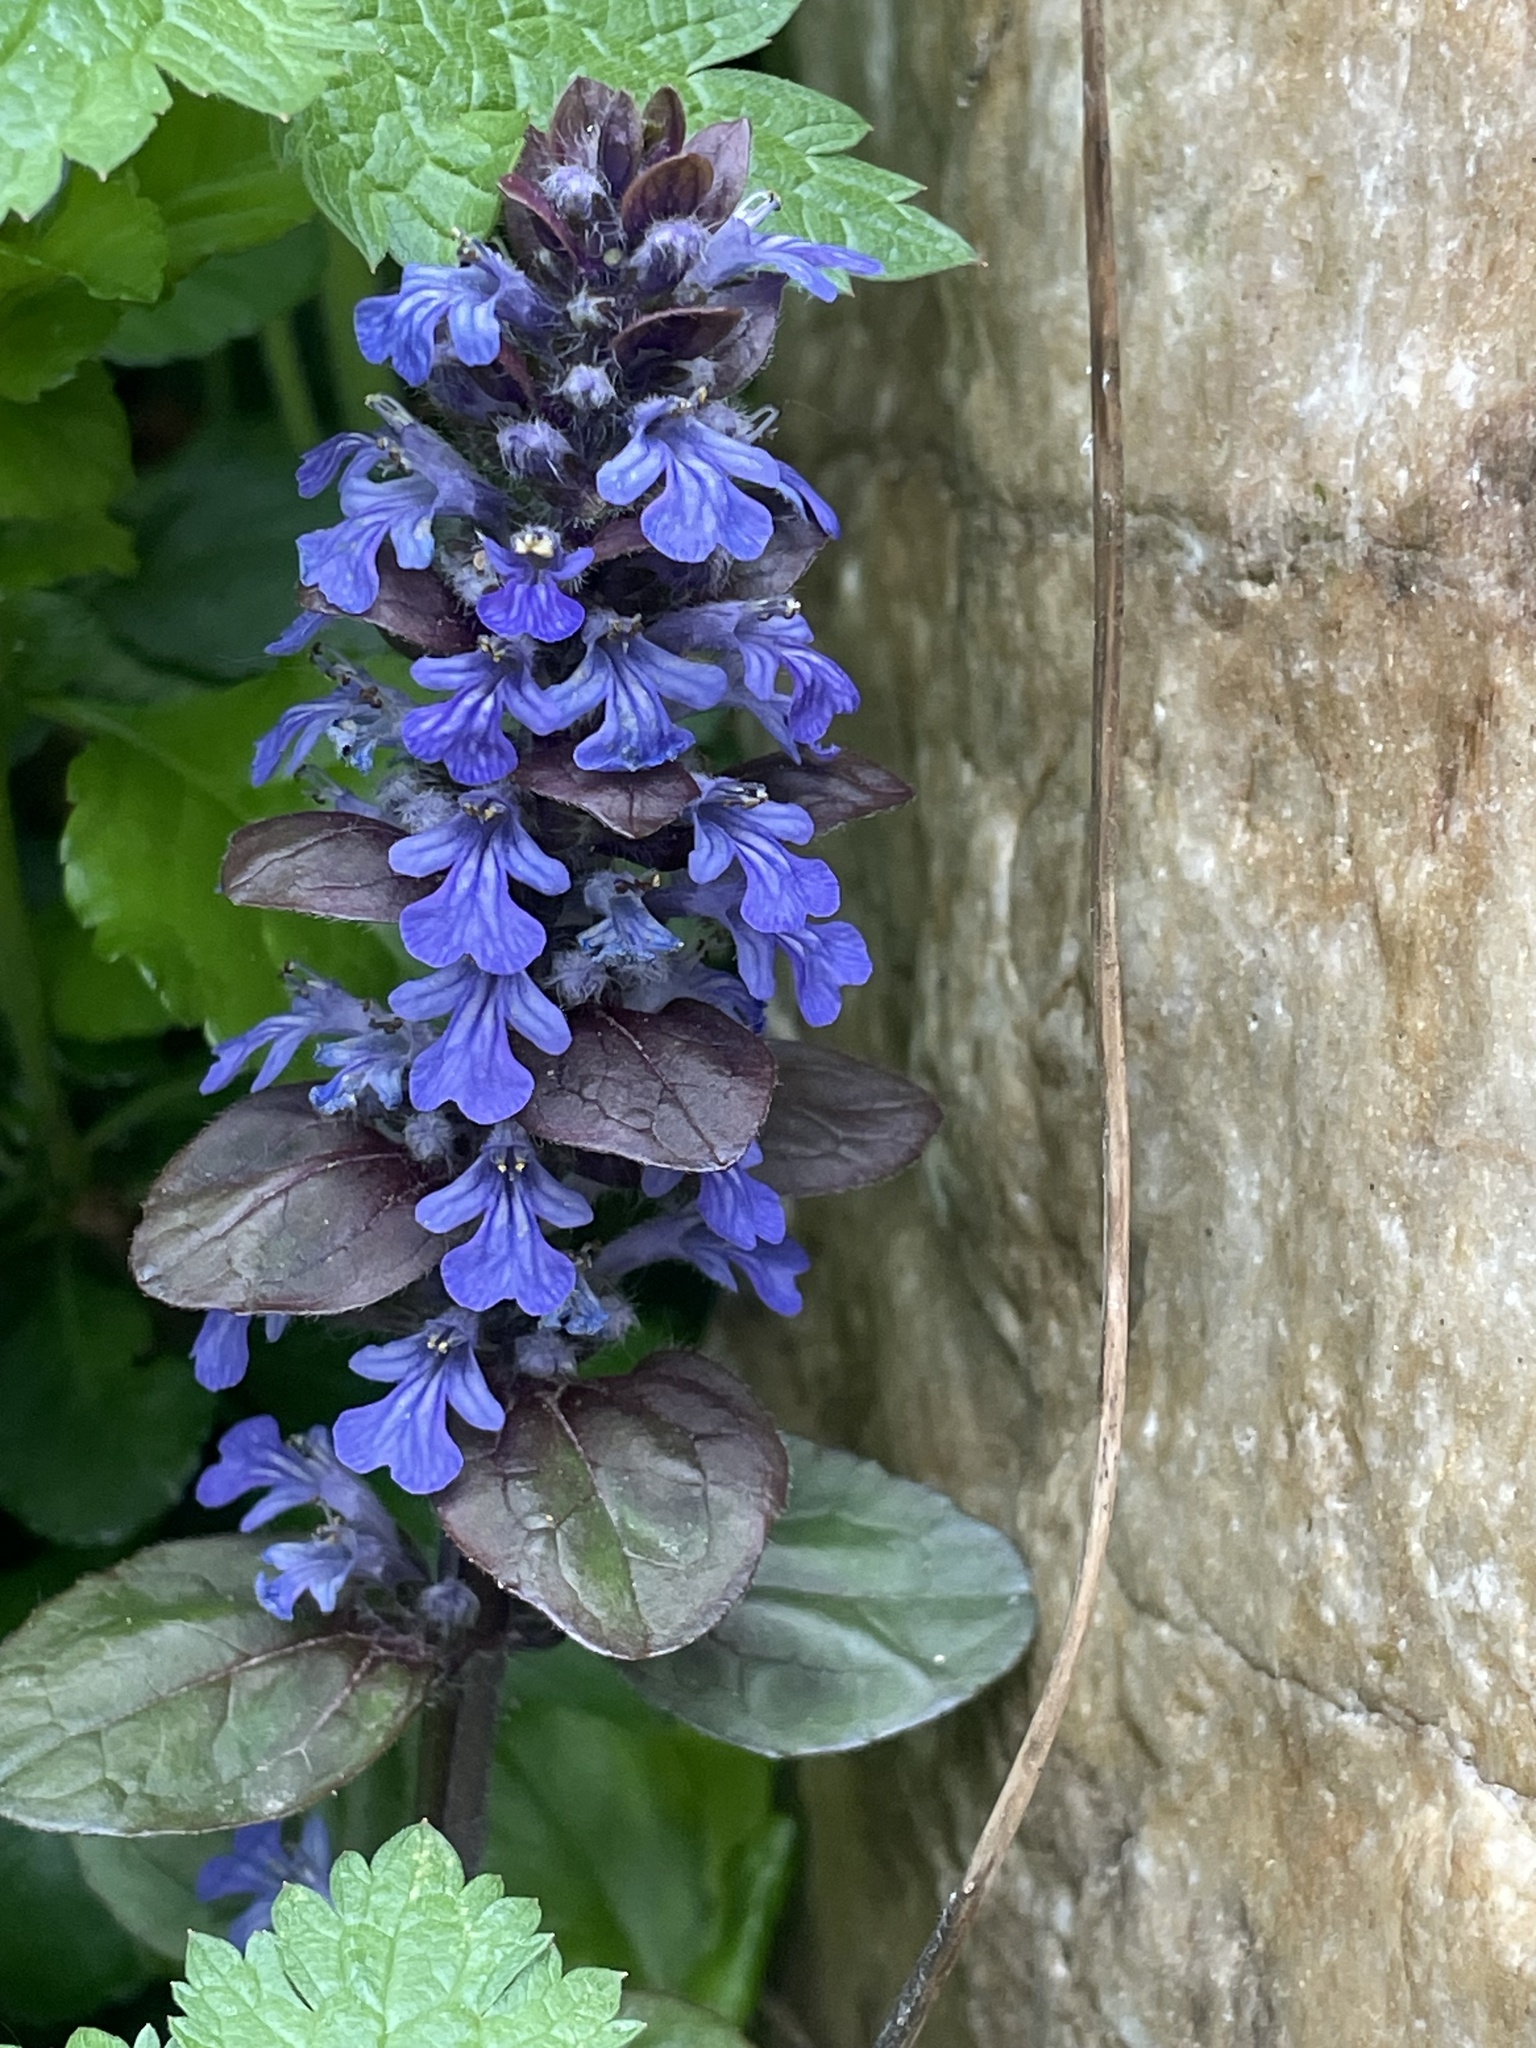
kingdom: Plantae
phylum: Tracheophyta
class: Magnoliopsida
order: Lamiales
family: Lamiaceae
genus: Ajuga
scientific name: Ajuga reptans
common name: Bugle
